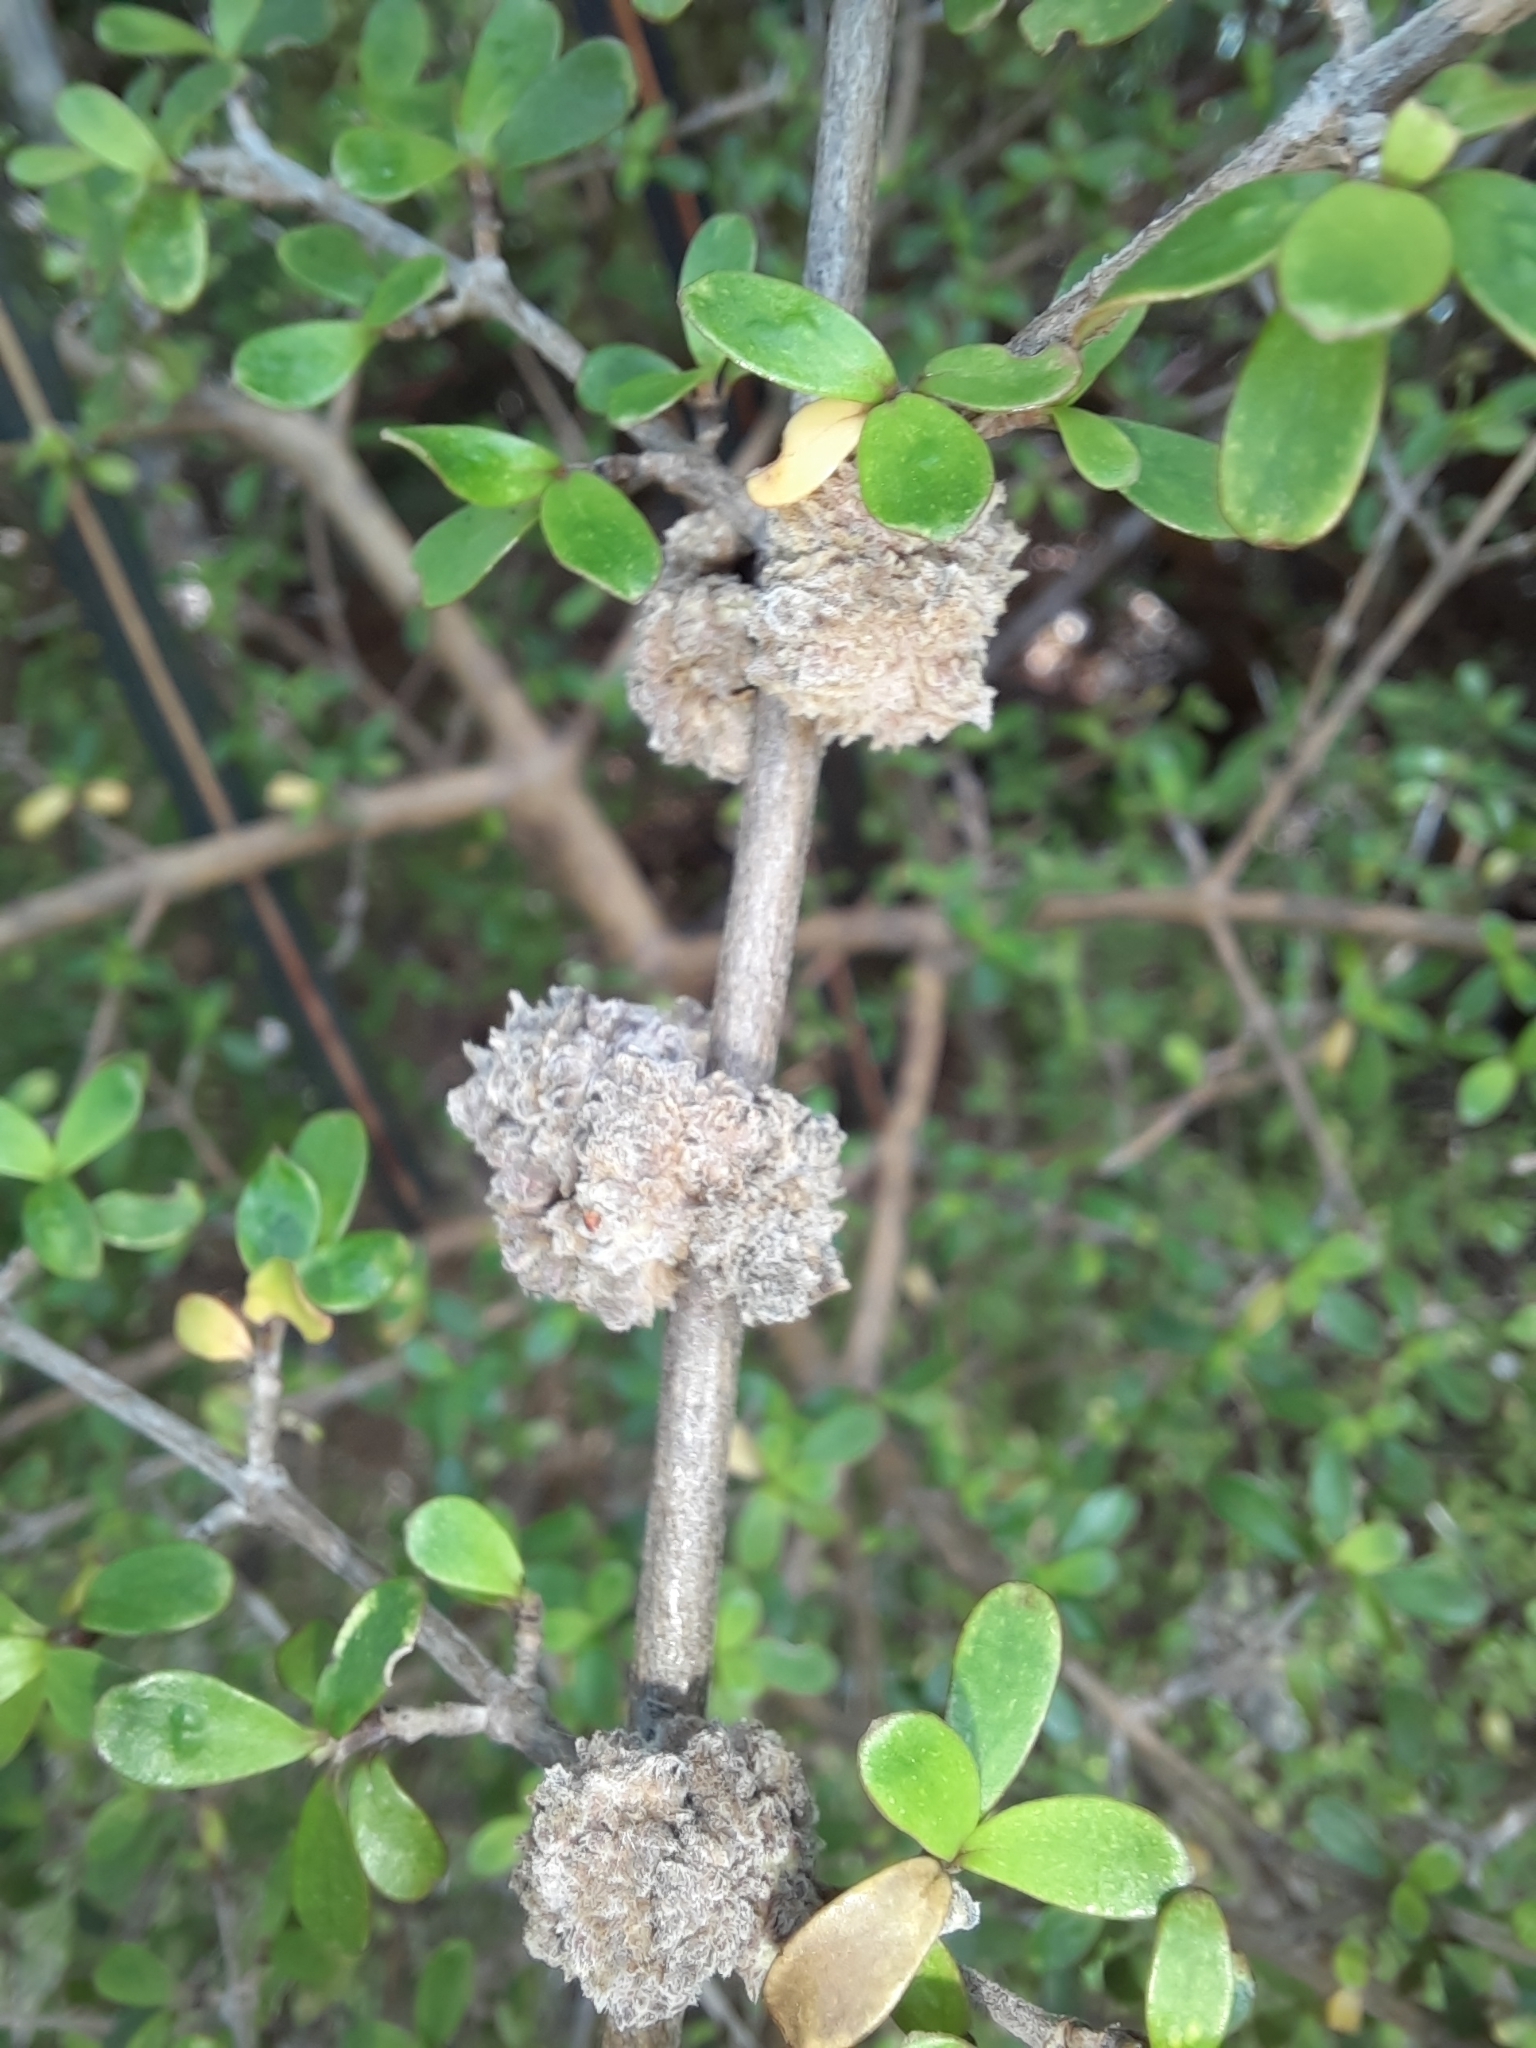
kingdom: Animalia
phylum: Arthropoda
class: Arachnida
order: Trombidiformes
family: Eriophyidae
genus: Acalitus
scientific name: Acalitus
